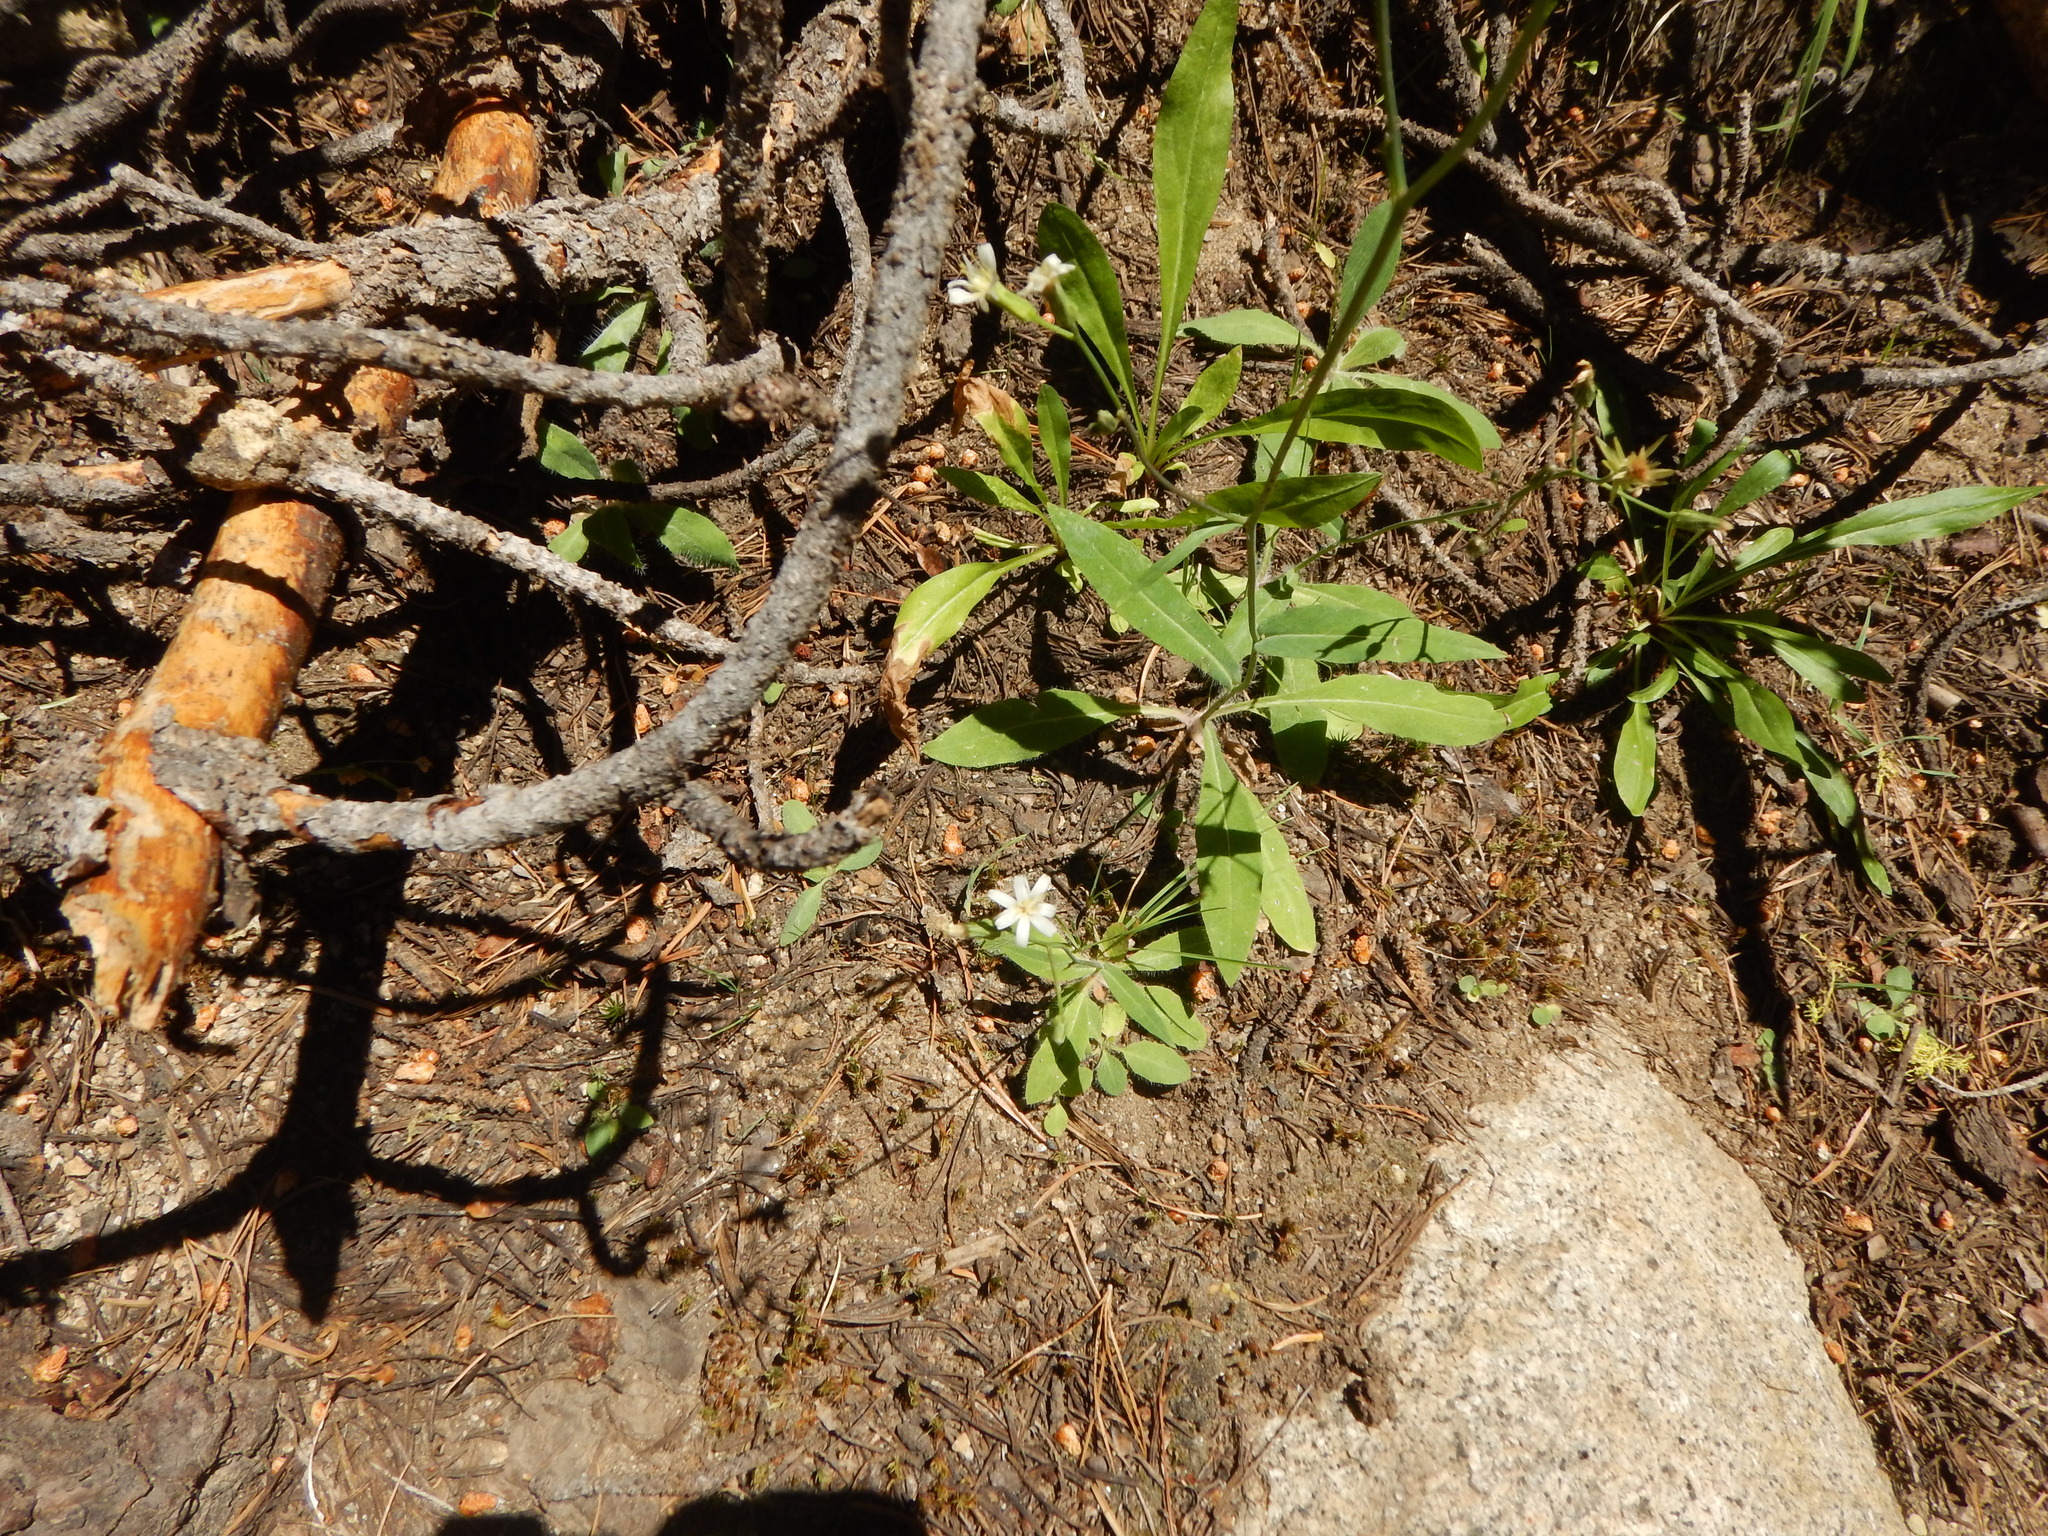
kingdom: Plantae
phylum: Tracheophyta
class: Magnoliopsida
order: Asterales
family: Asteraceae
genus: Hieracium
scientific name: Hieracium albiflorum
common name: White hawkweed
